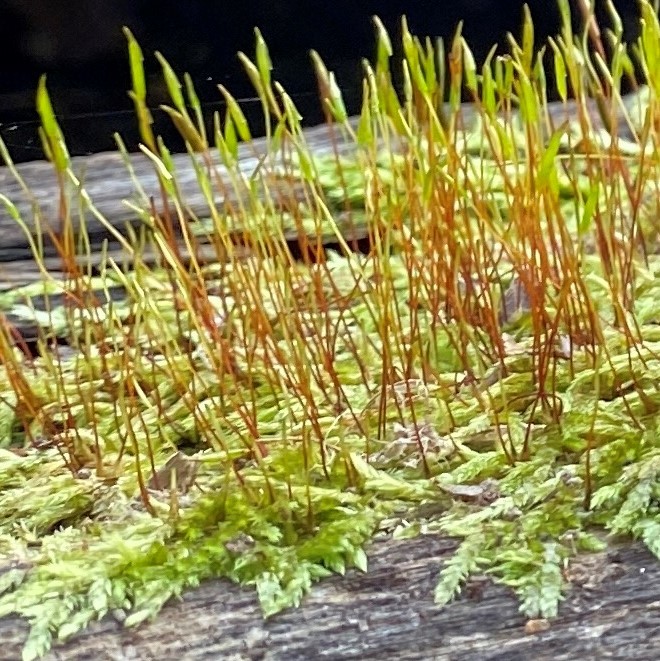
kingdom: Plantae
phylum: Bryophyta
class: Bryopsida
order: Hypnales
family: Pylaisiadelphaceae
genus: Platygyrium
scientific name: Platygyrium repens
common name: Flat-brocade moss
